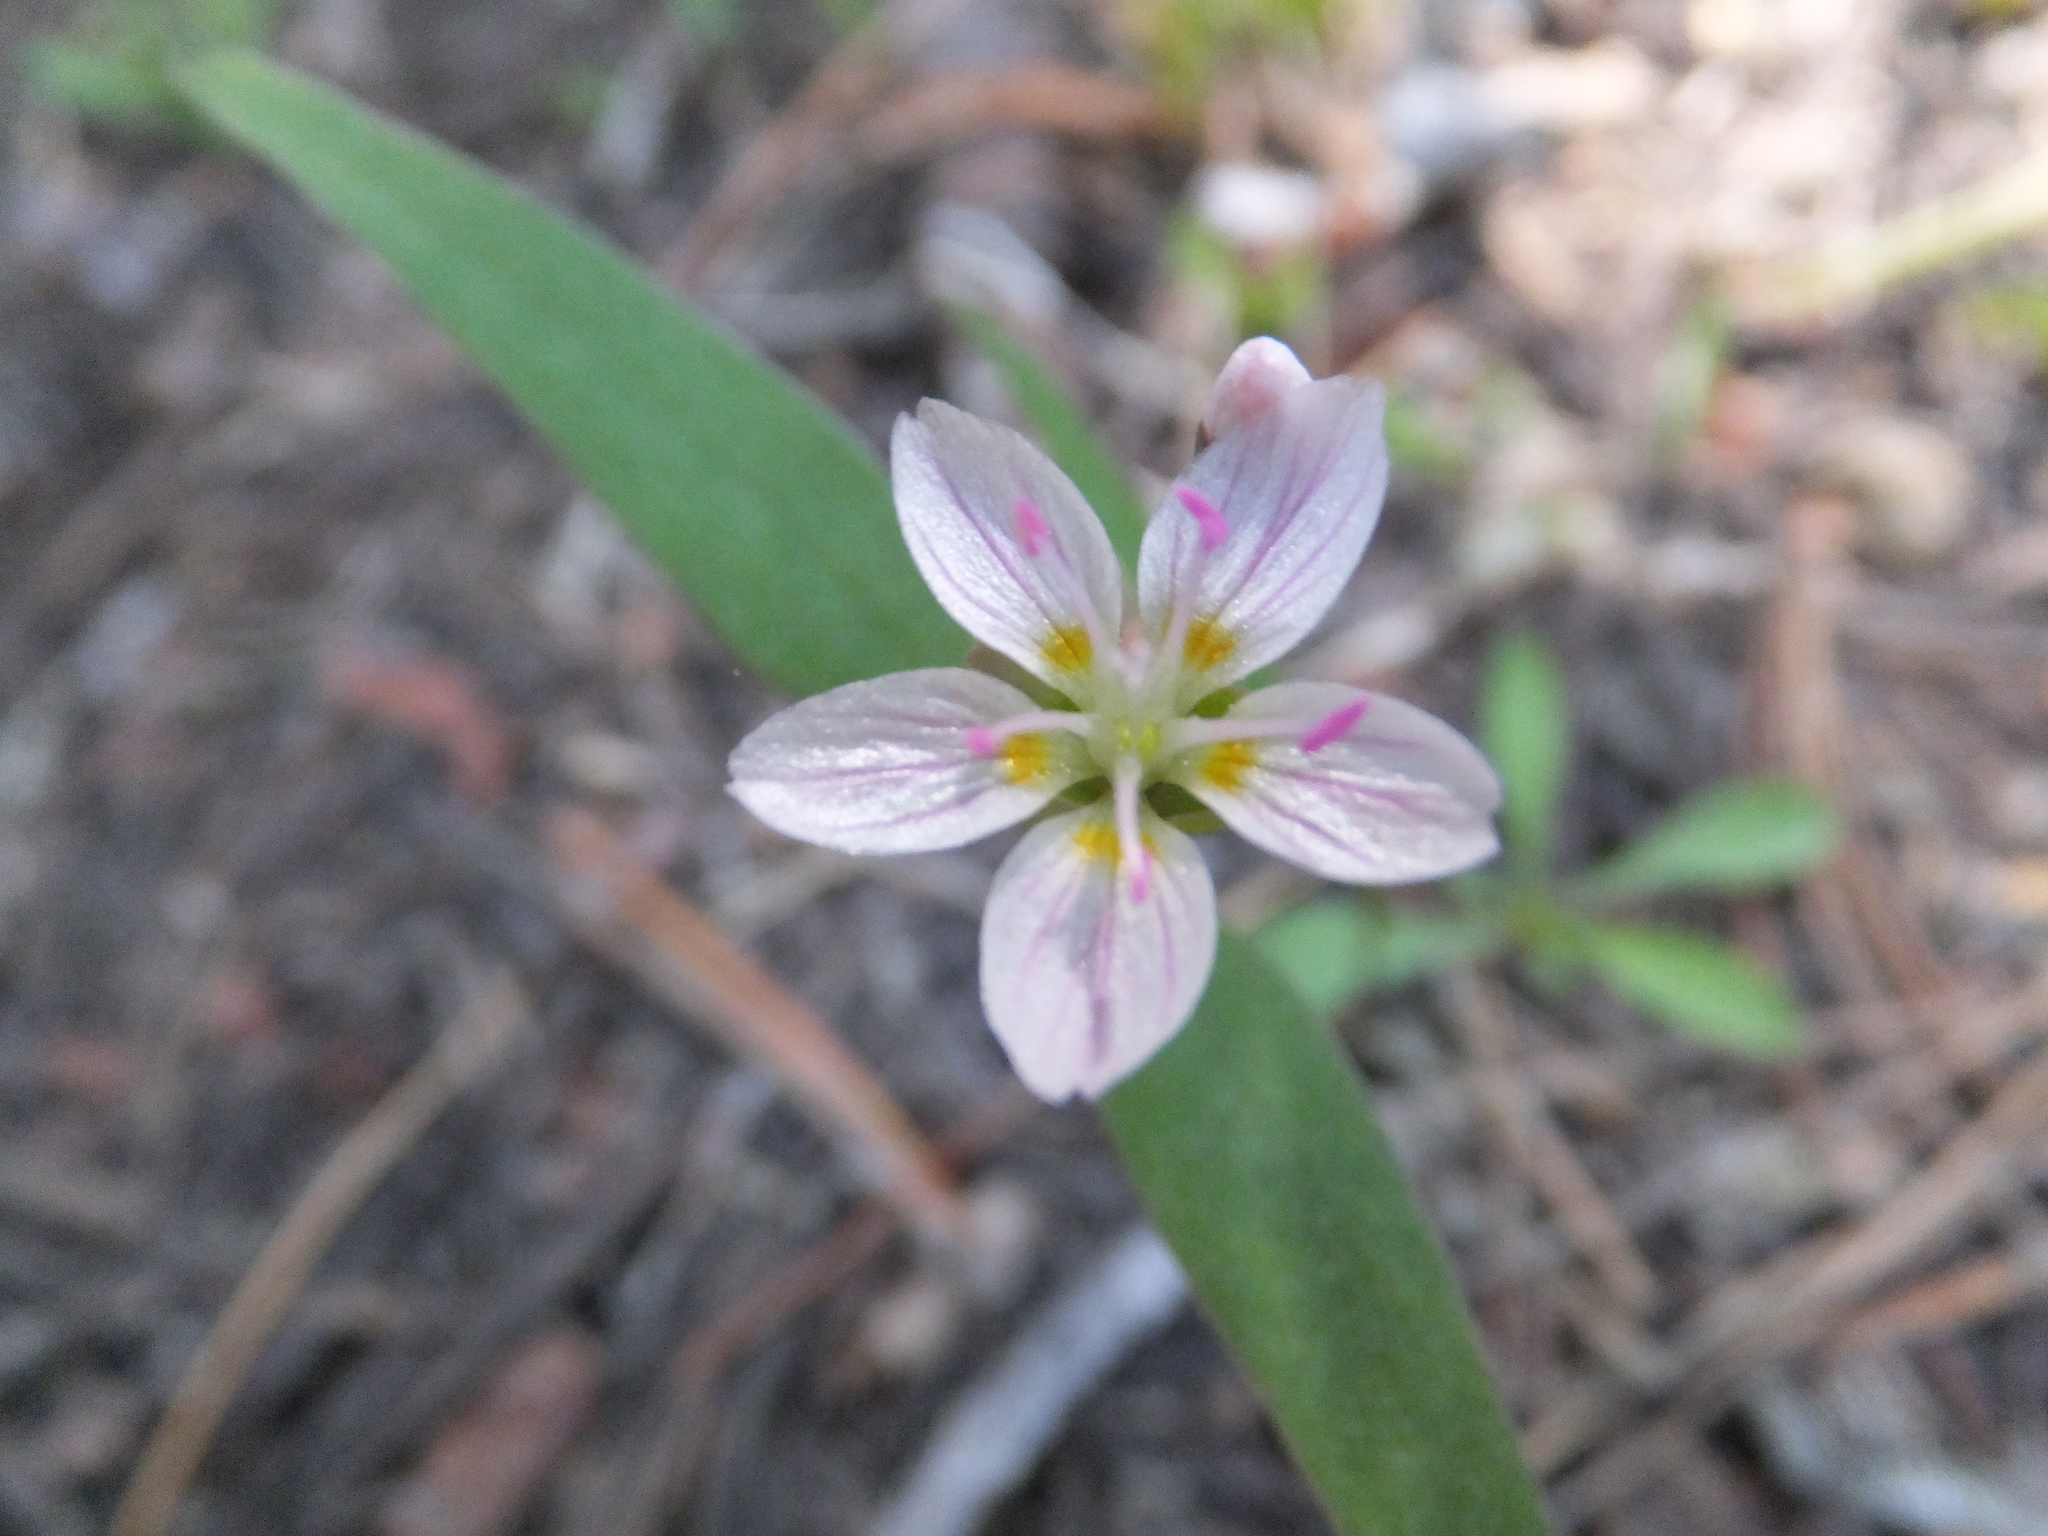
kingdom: Plantae
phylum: Tracheophyta
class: Magnoliopsida
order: Caryophyllales
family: Montiaceae
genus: Claytonia
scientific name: Claytonia lanceolata
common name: Western spring-beauty
